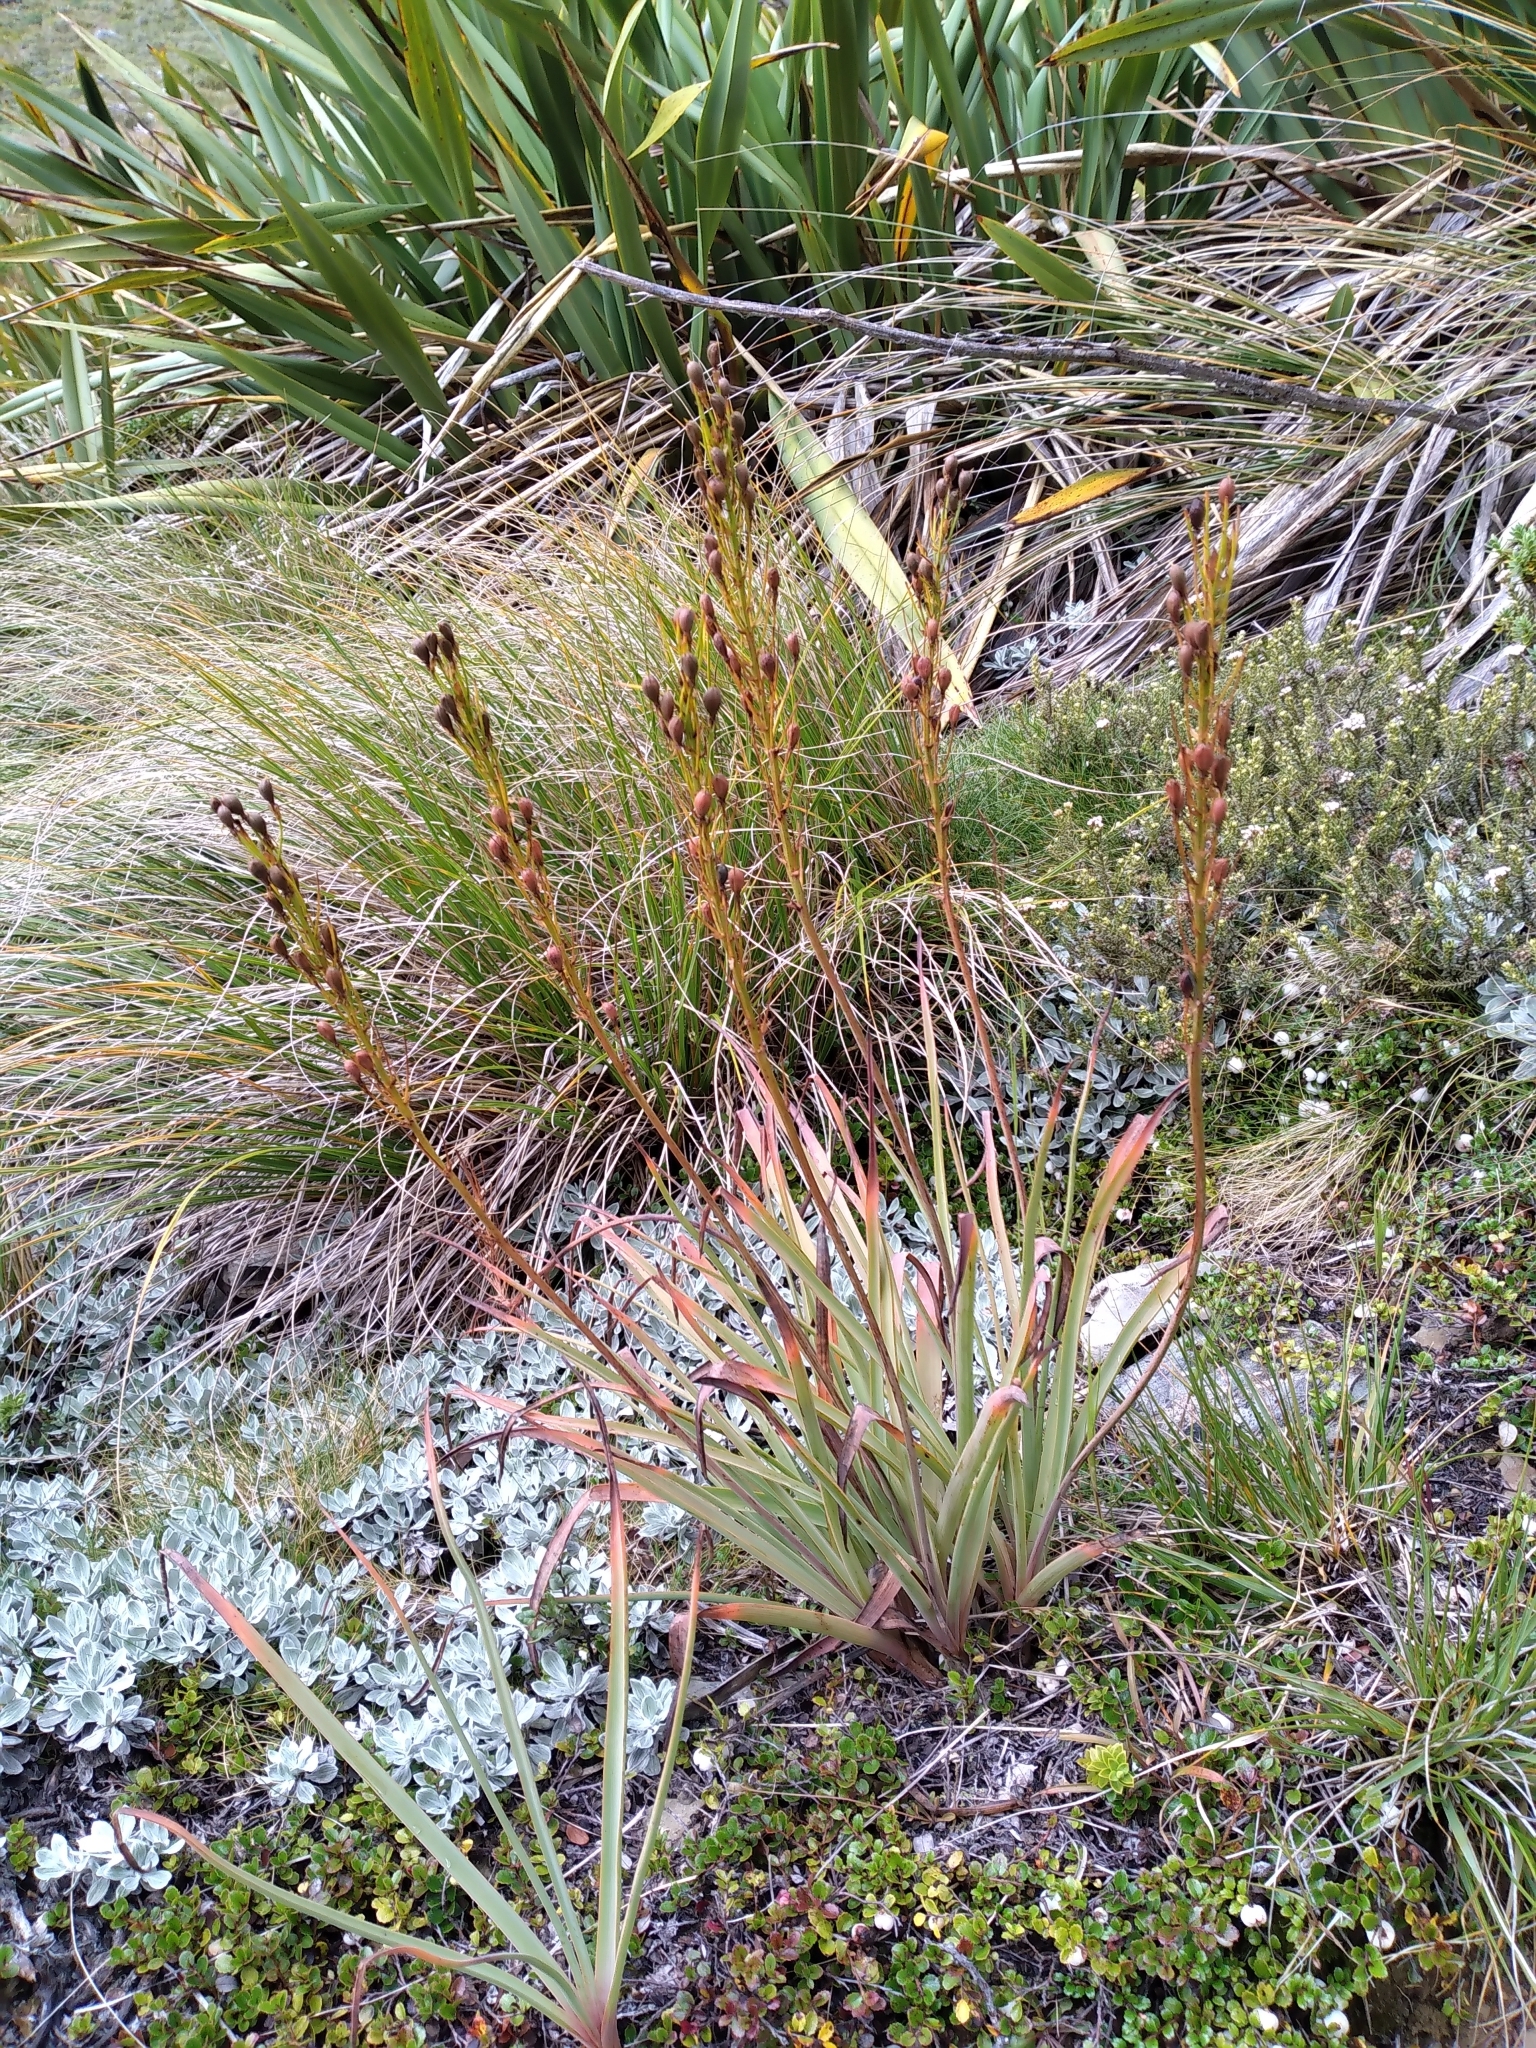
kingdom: Plantae
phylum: Tracheophyta
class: Liliopsida
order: Asparagales
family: Asphodelaceae
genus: Bulbinella
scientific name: Bulbinella hookeri
